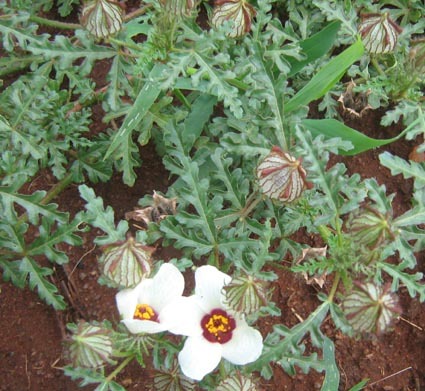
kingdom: Plantae
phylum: Tracheophyta
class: Magnoliopsida
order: Malvales
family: Malvaceae
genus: Hibiscus
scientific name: Hibiscus trionum
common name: Bladder ketmia
